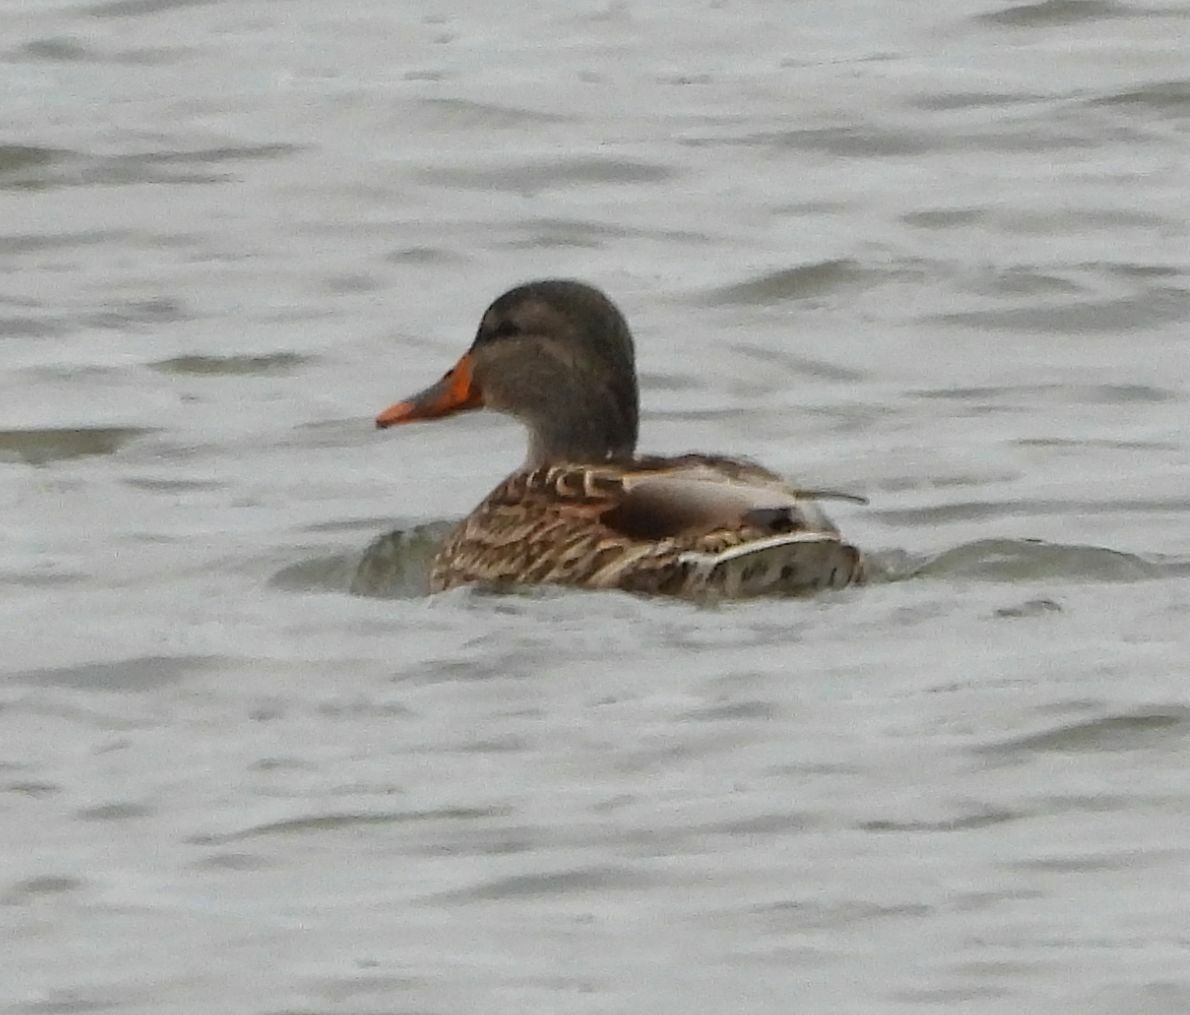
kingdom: Animalia
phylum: Chordata
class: Aves
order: Anseriformes
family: Anatidae
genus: Anas
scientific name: Anas platyrhynchos
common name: Mallard
